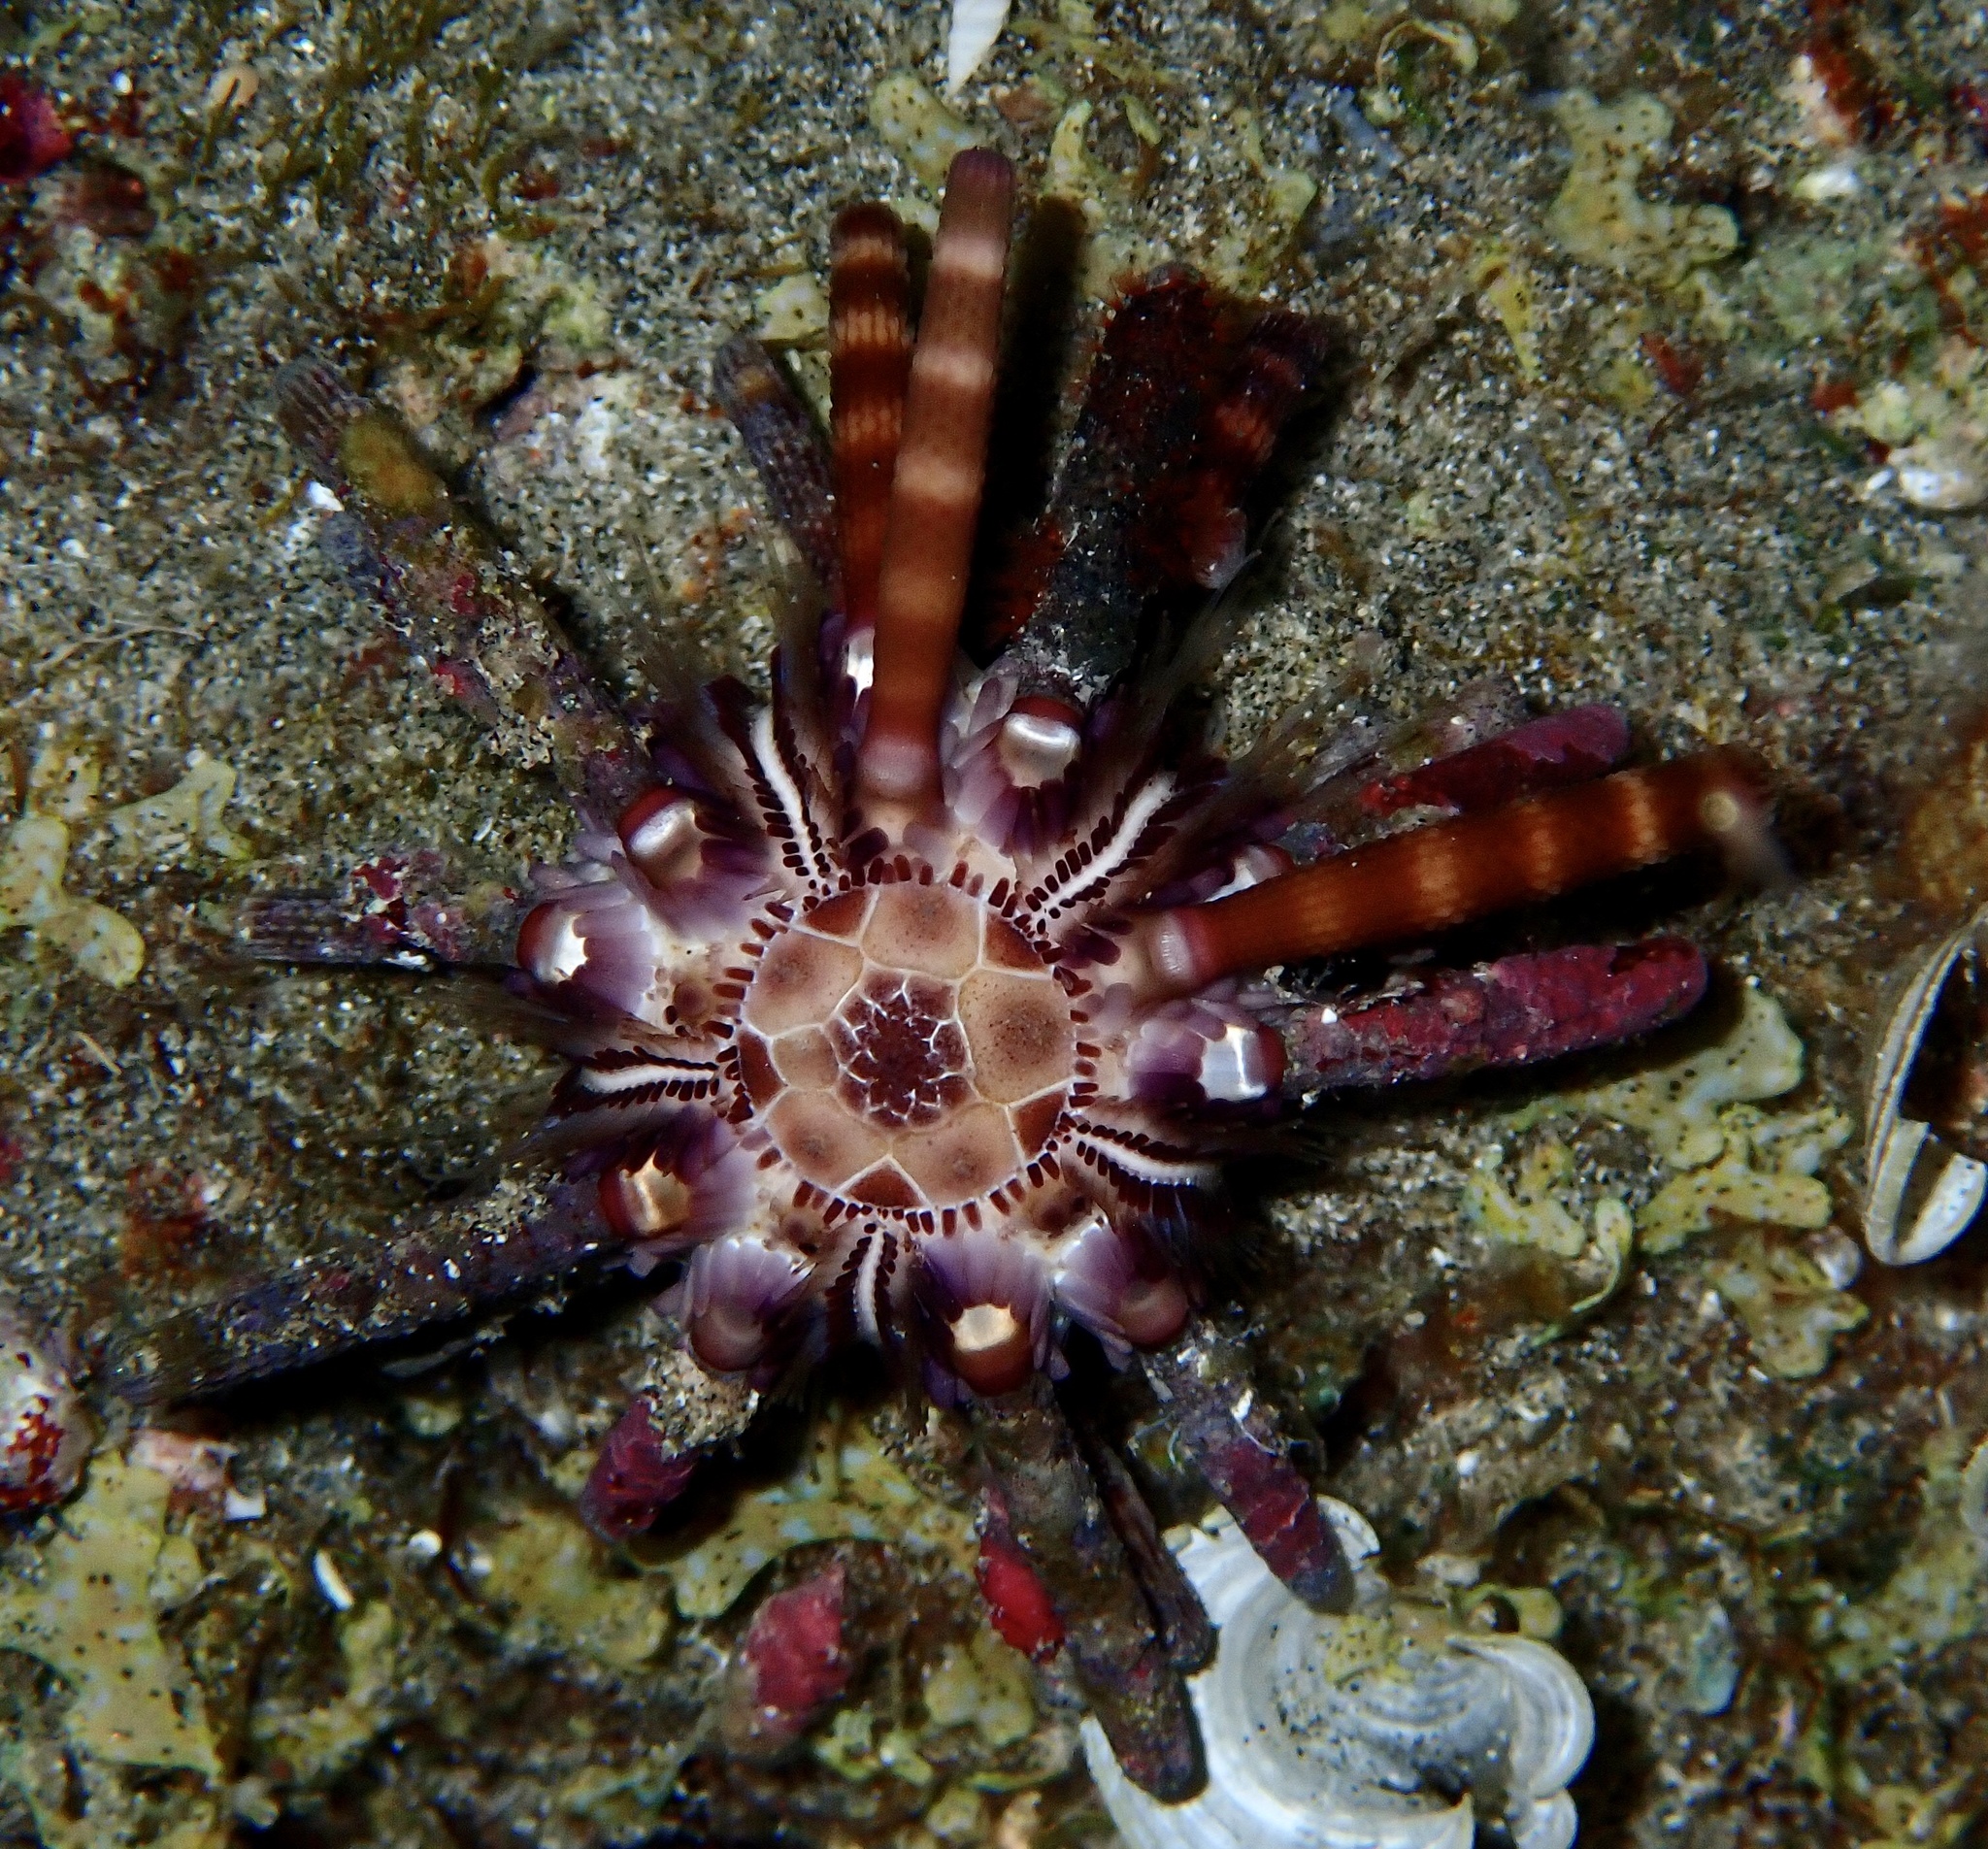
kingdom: Animalia
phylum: Echinodermata
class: Echinoidea
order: Cidaroida
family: Cidaridae
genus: Eucidaris
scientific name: Eucidaris metularia
